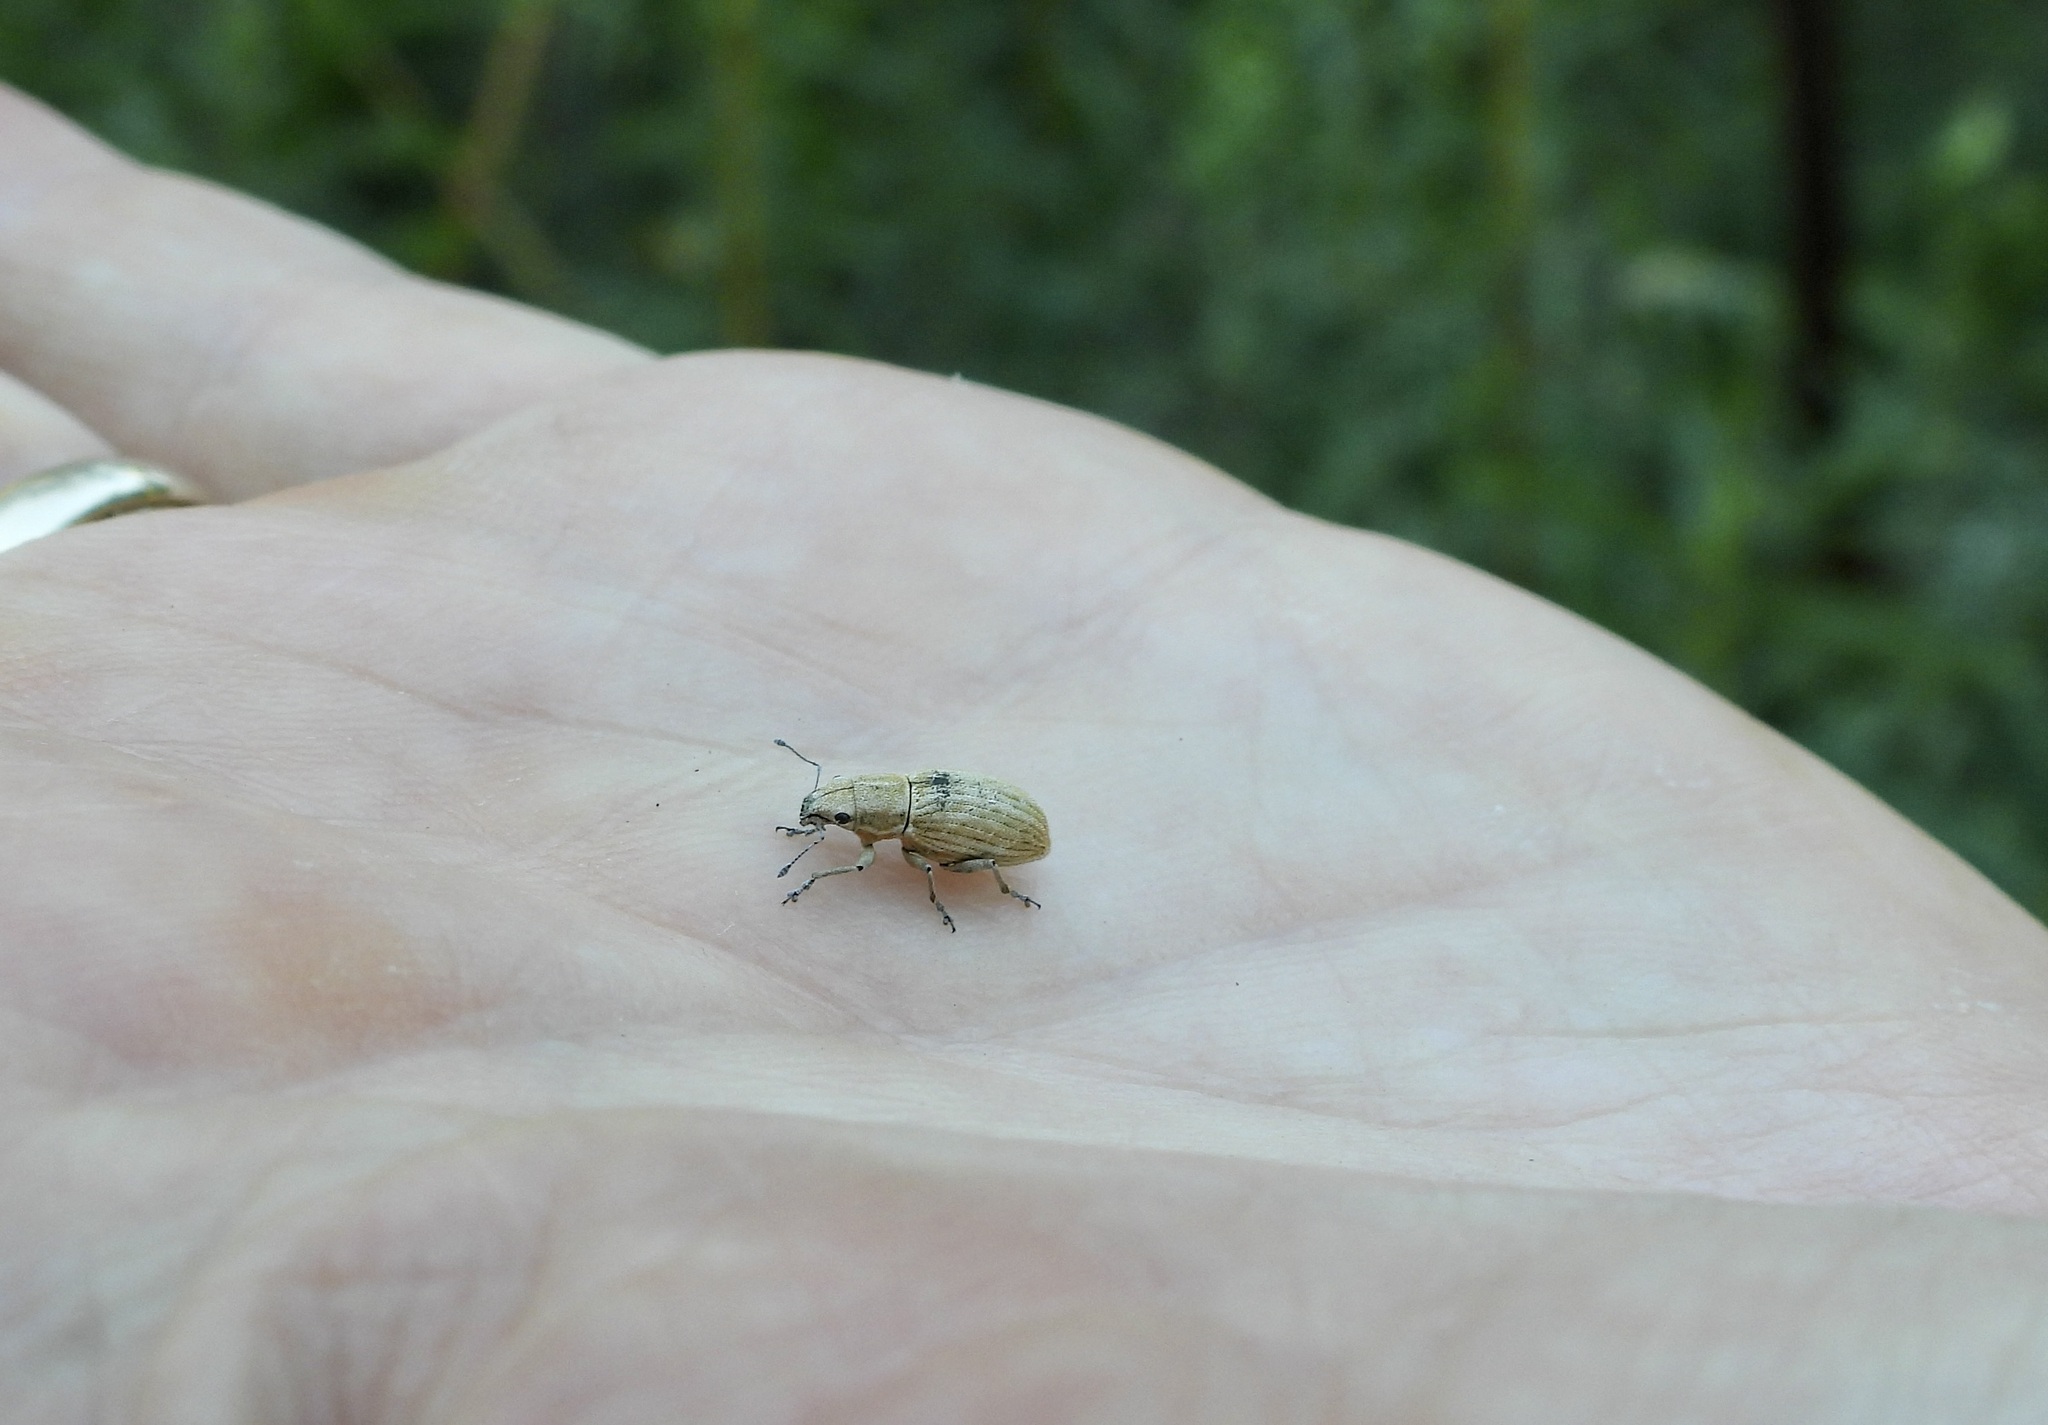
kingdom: Animalia
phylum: Arthropoda
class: Insecta
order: Coleoptera
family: Curculionidae
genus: Aramigus
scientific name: Aramigus tessellatus
